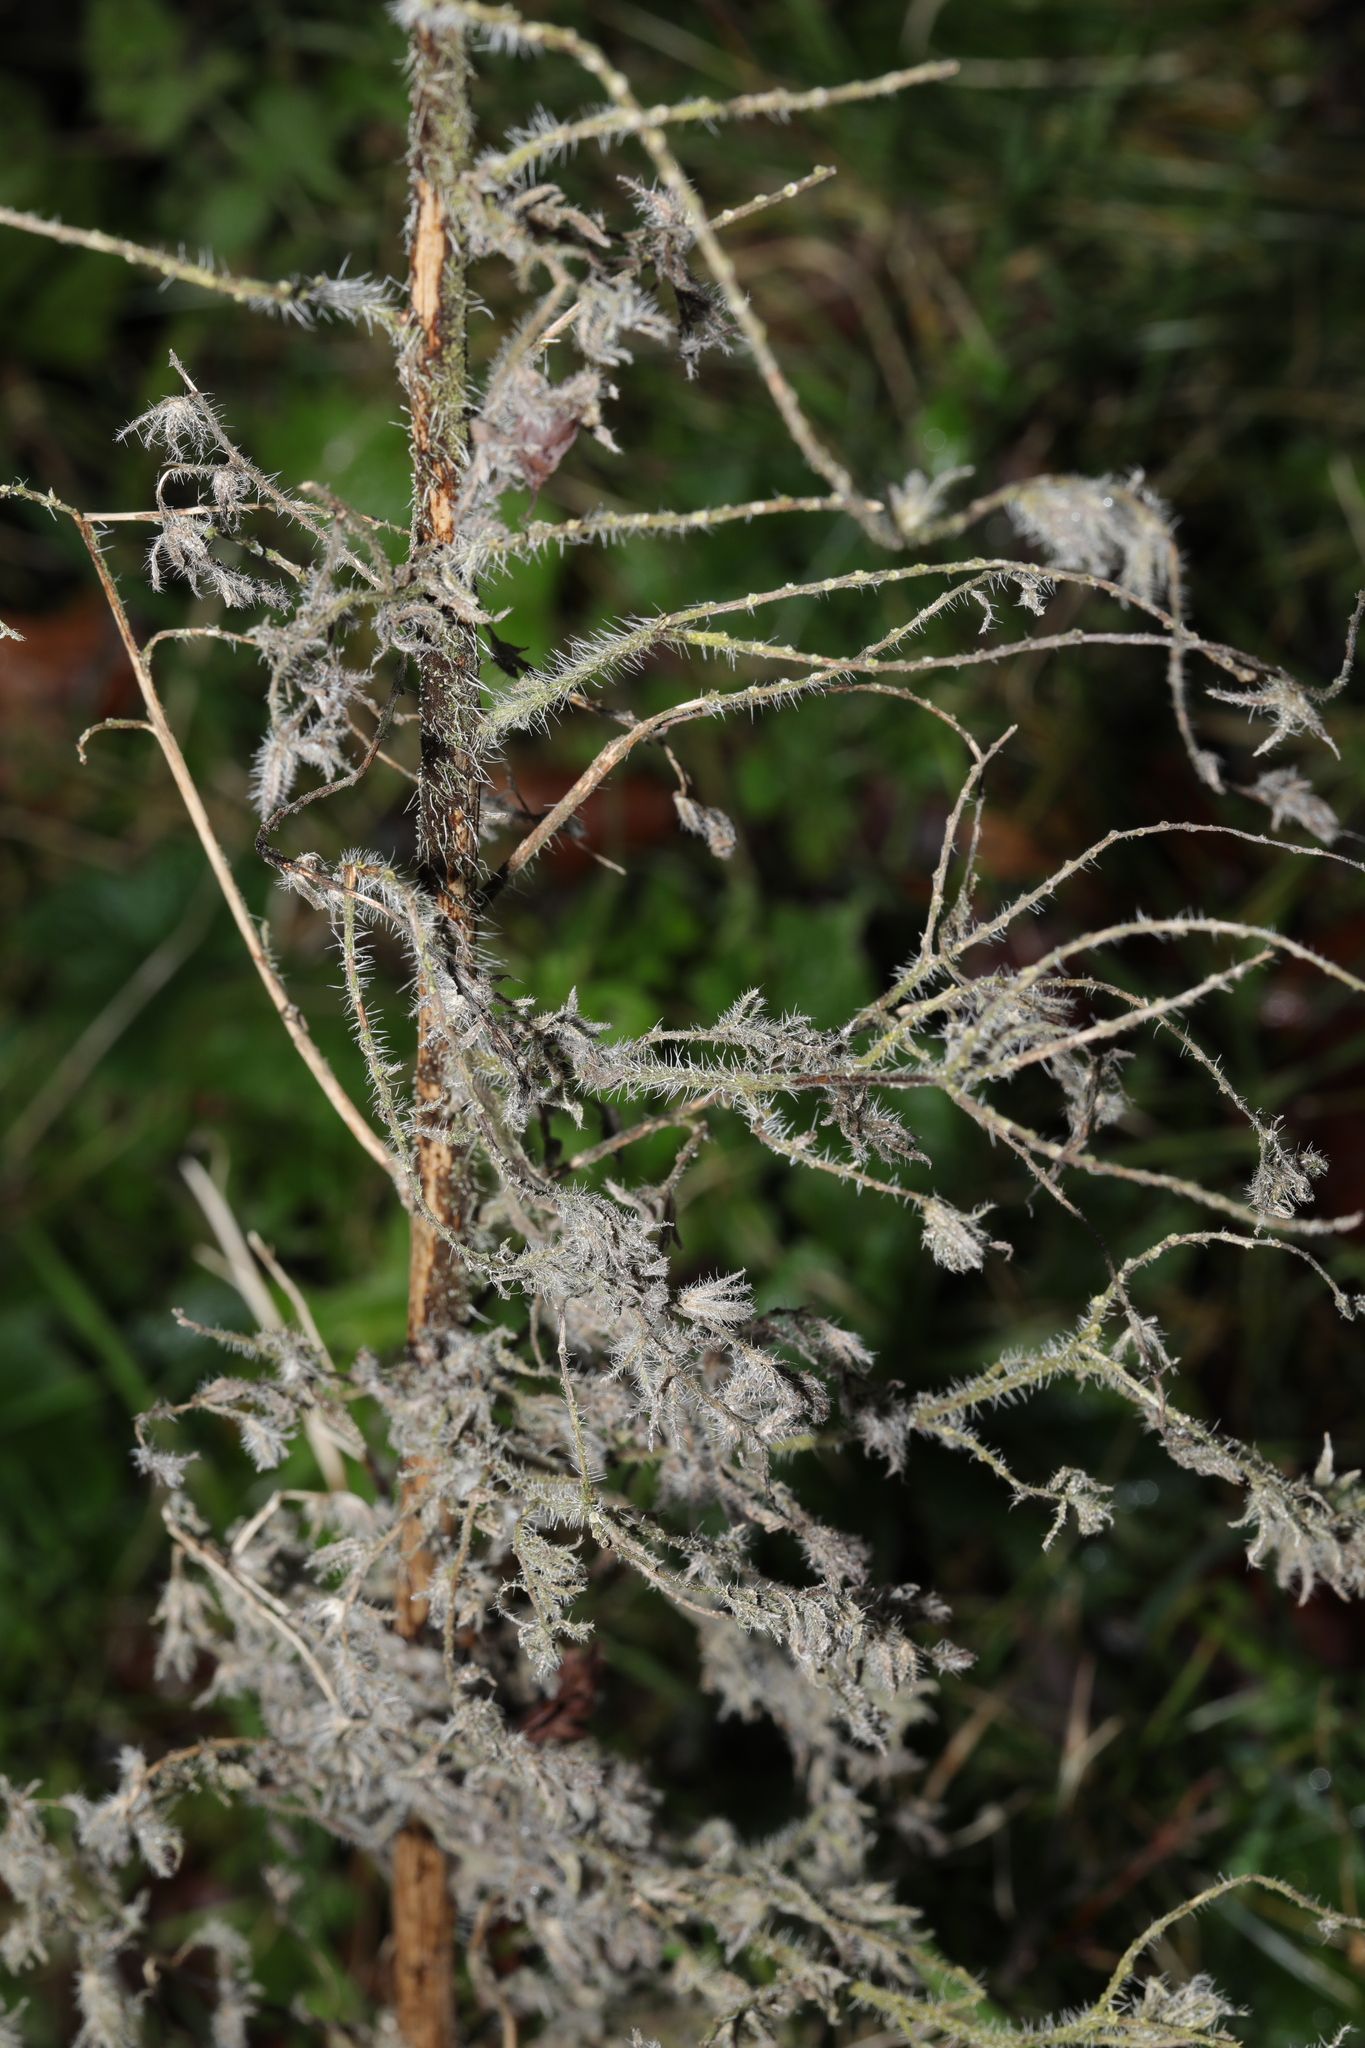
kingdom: Plantae
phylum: Tracheophyta
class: Magnoliopsida
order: Boraginales
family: Boraginaceae
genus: Echium
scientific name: Echium vulgare
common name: Common viper's bugloss
